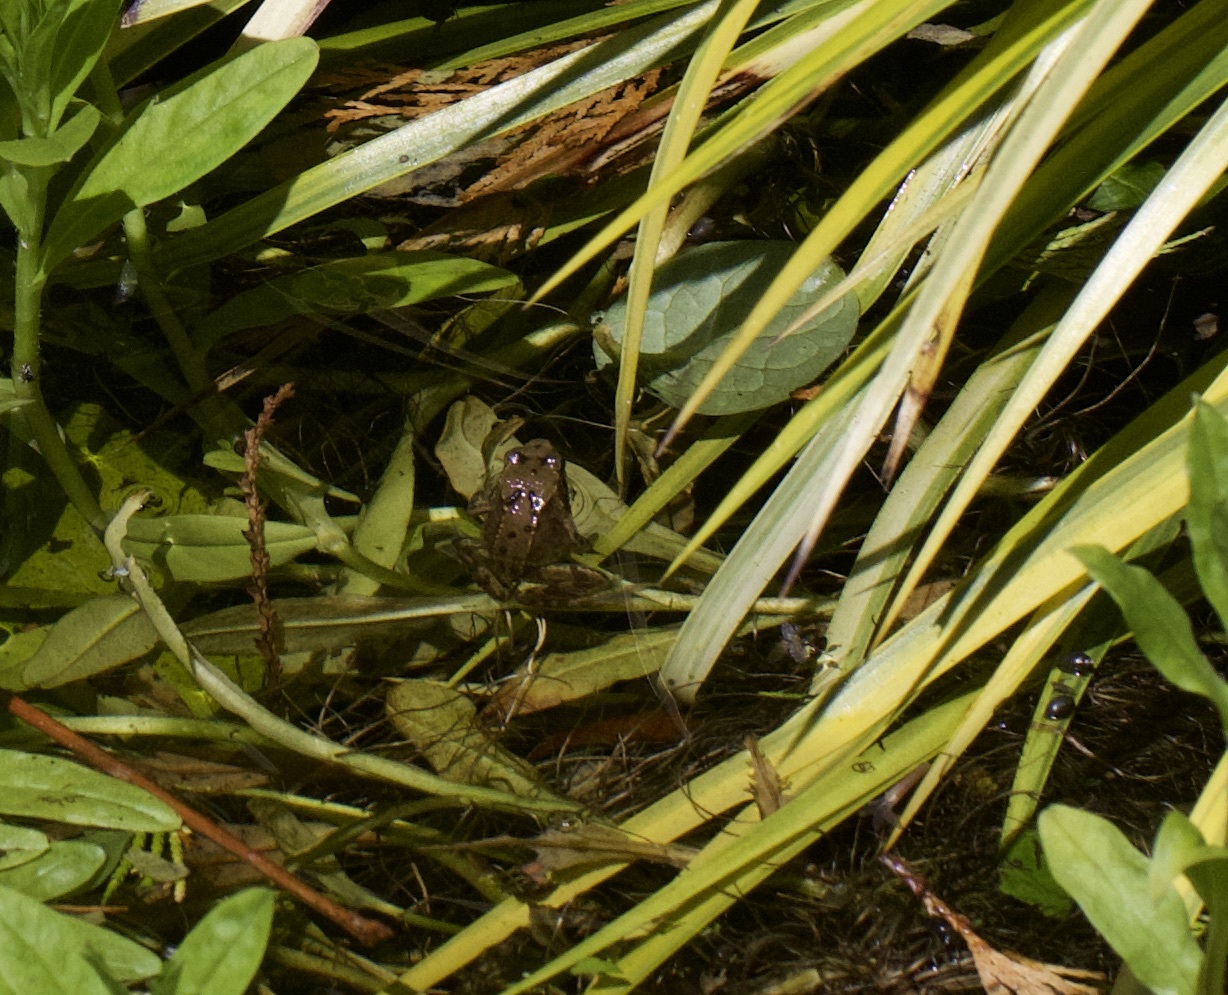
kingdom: Animalia
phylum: Chordata
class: Amphibia
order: Anura
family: Ranidae
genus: Rana
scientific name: Rana temporaria
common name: Common frog
